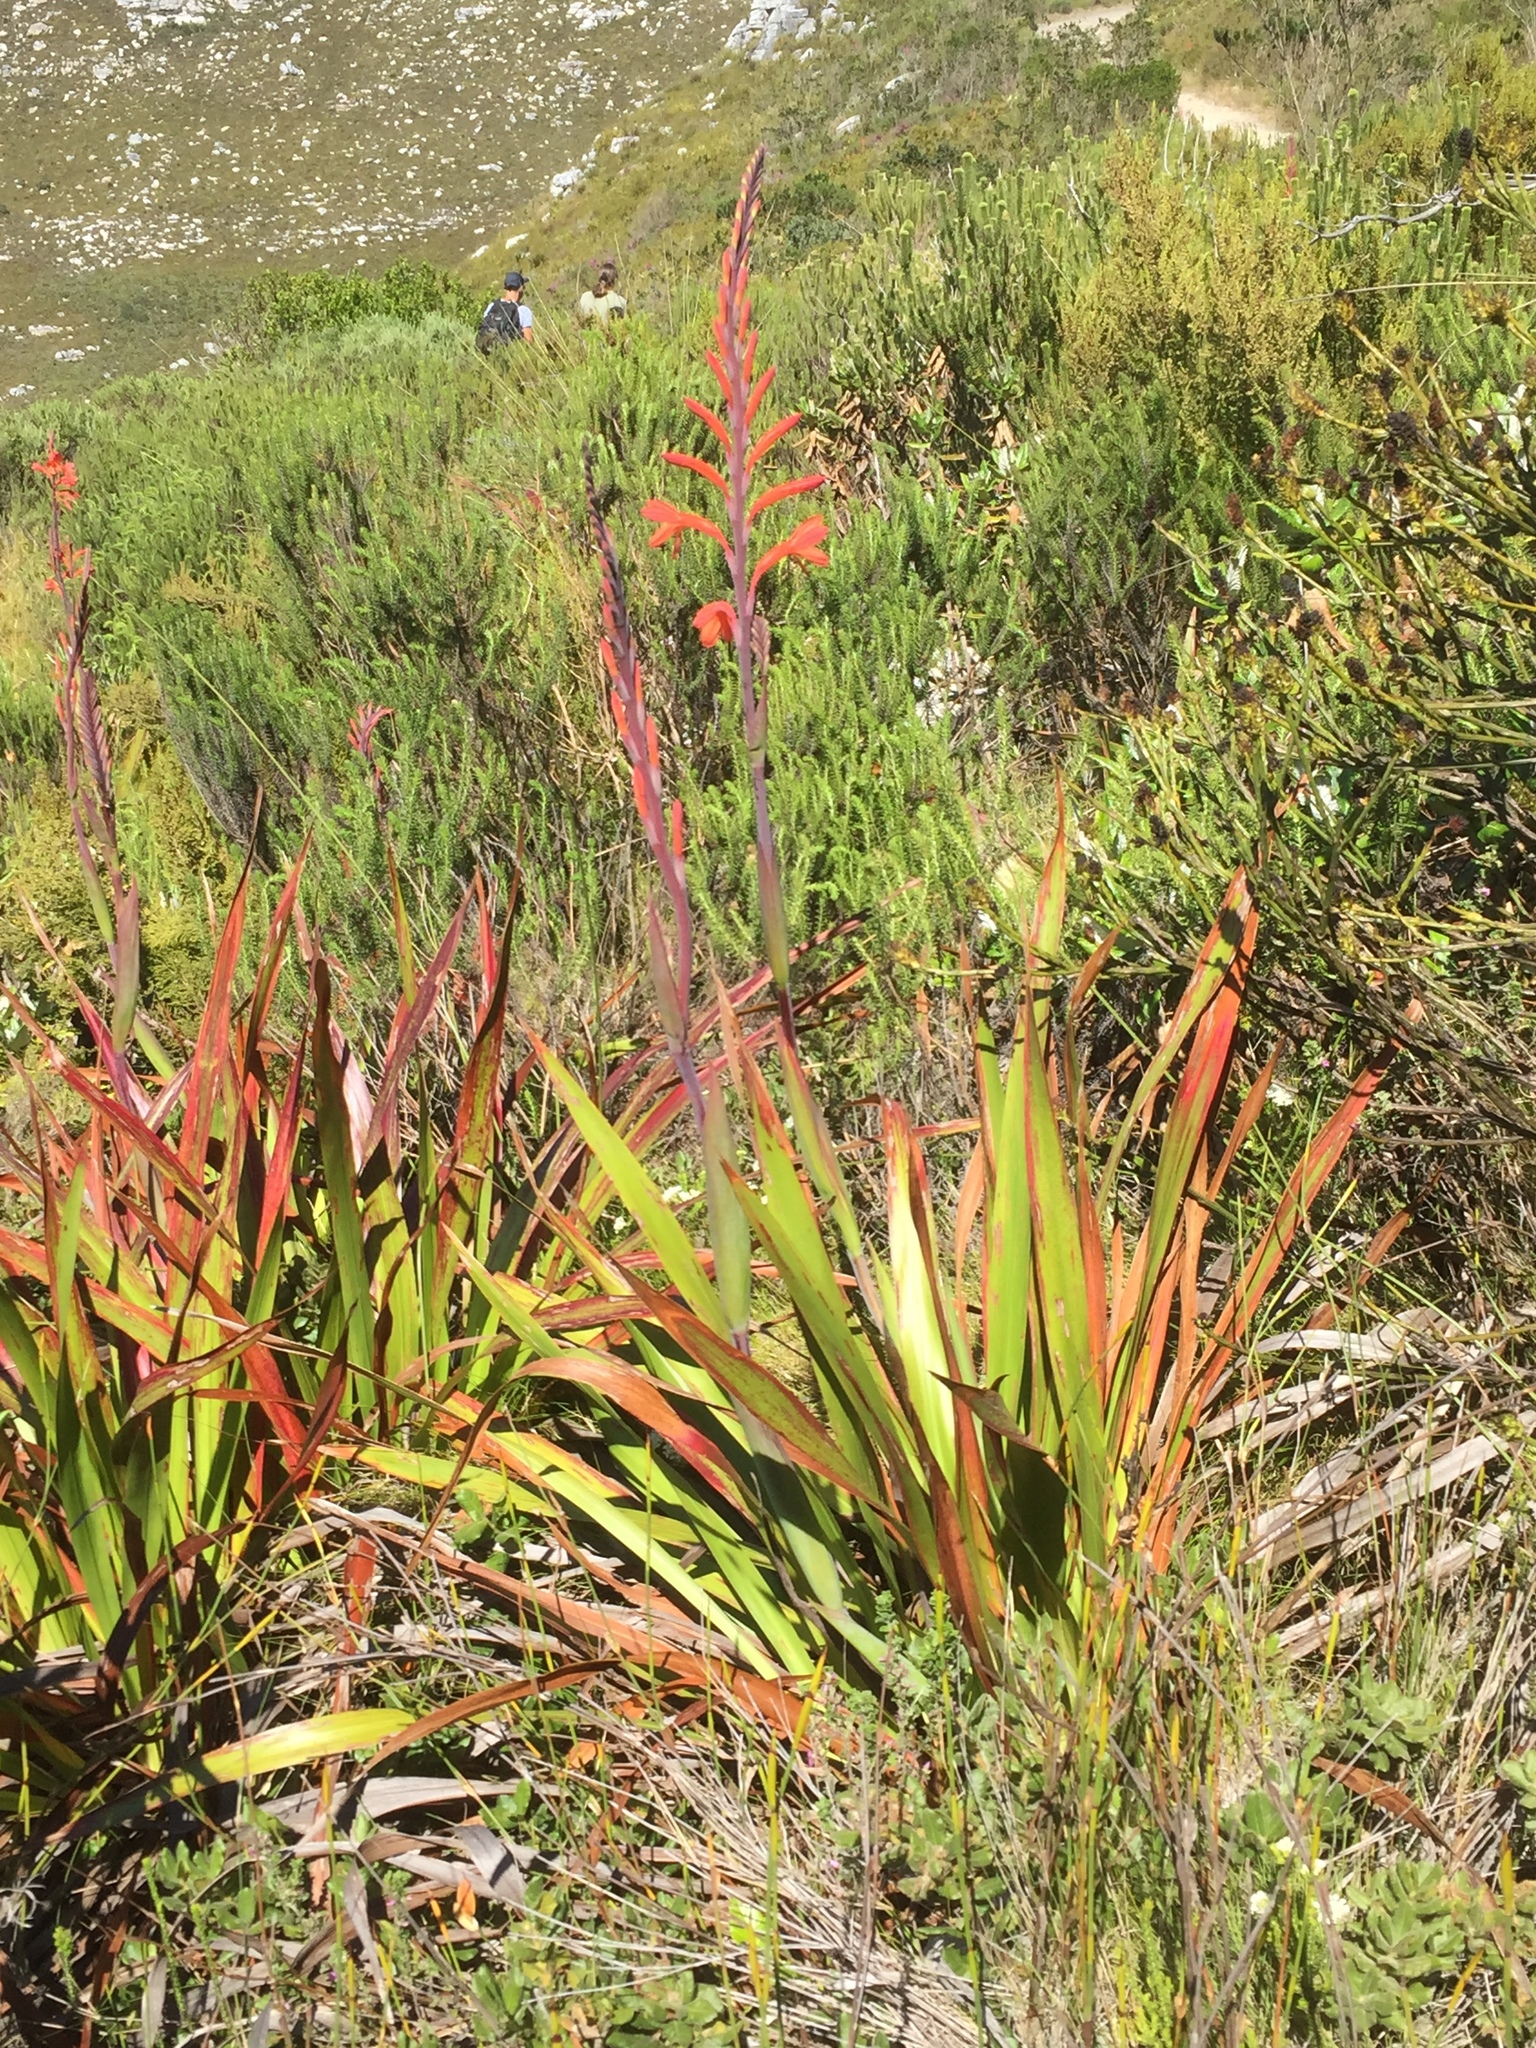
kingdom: Plantae
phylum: Tracheophyta
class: Liliopsida
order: Asparagales
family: Iridaceae
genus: Watsonia
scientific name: Watsonia tabularis
